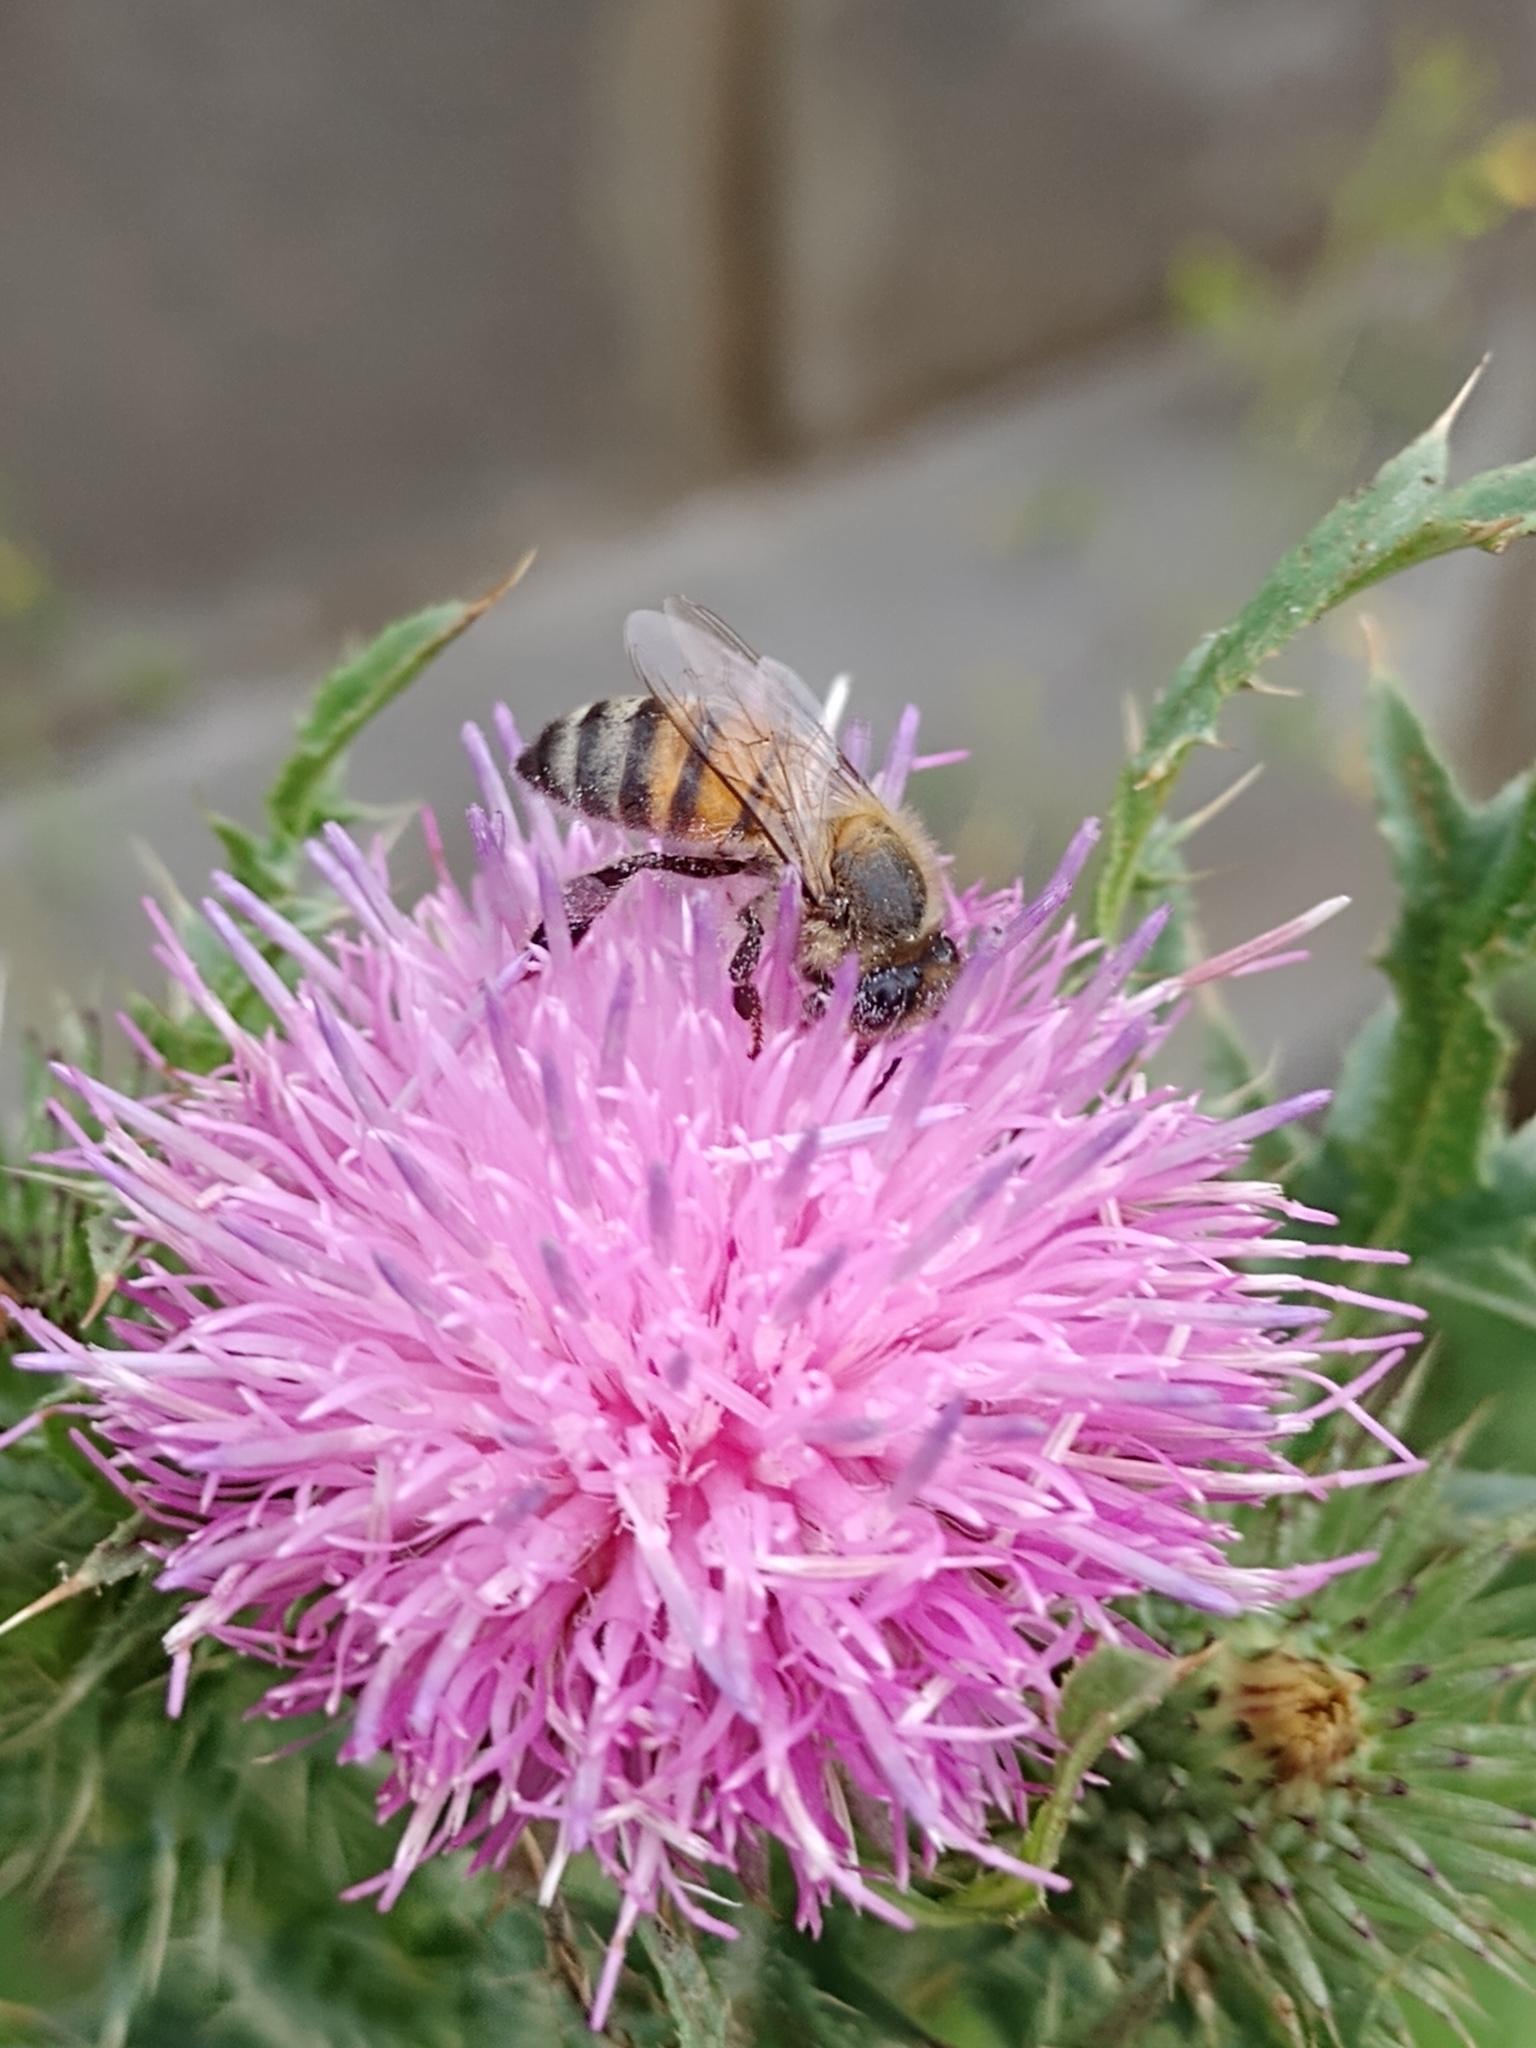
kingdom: Animalia
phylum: Arthropoda
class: Insecta
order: Hymenoptera
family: Apidae
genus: Apis
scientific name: Apis mellifera
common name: Honey bee
